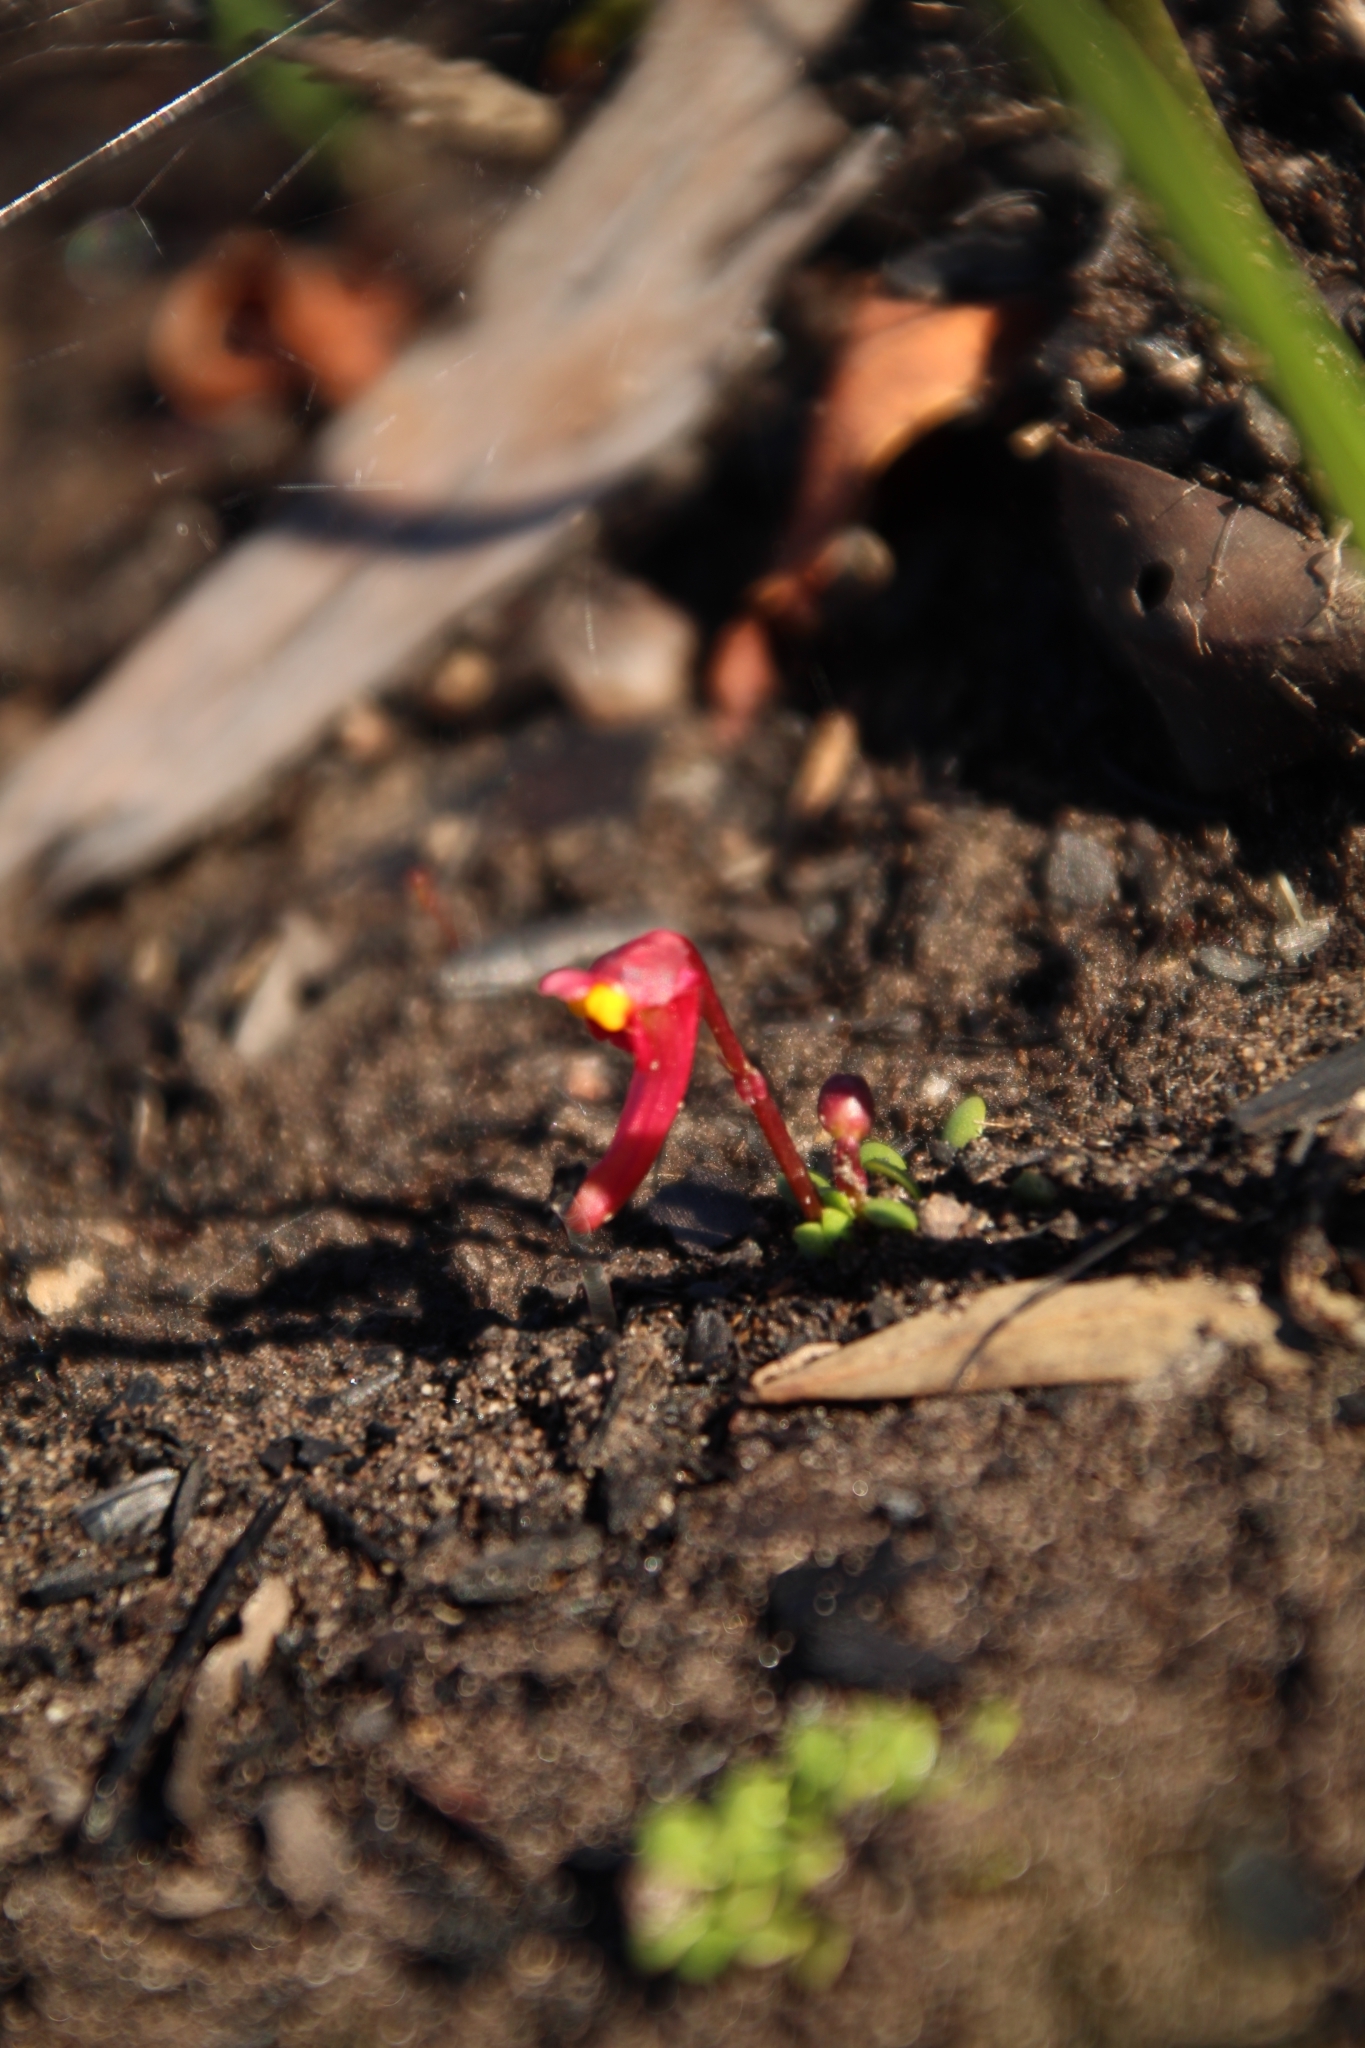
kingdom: Plantae
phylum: Tracheophyta
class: Magnoliopsida
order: Lamiales
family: Lentibulariaceae
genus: Utricularia
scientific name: Utricularia menziesii
